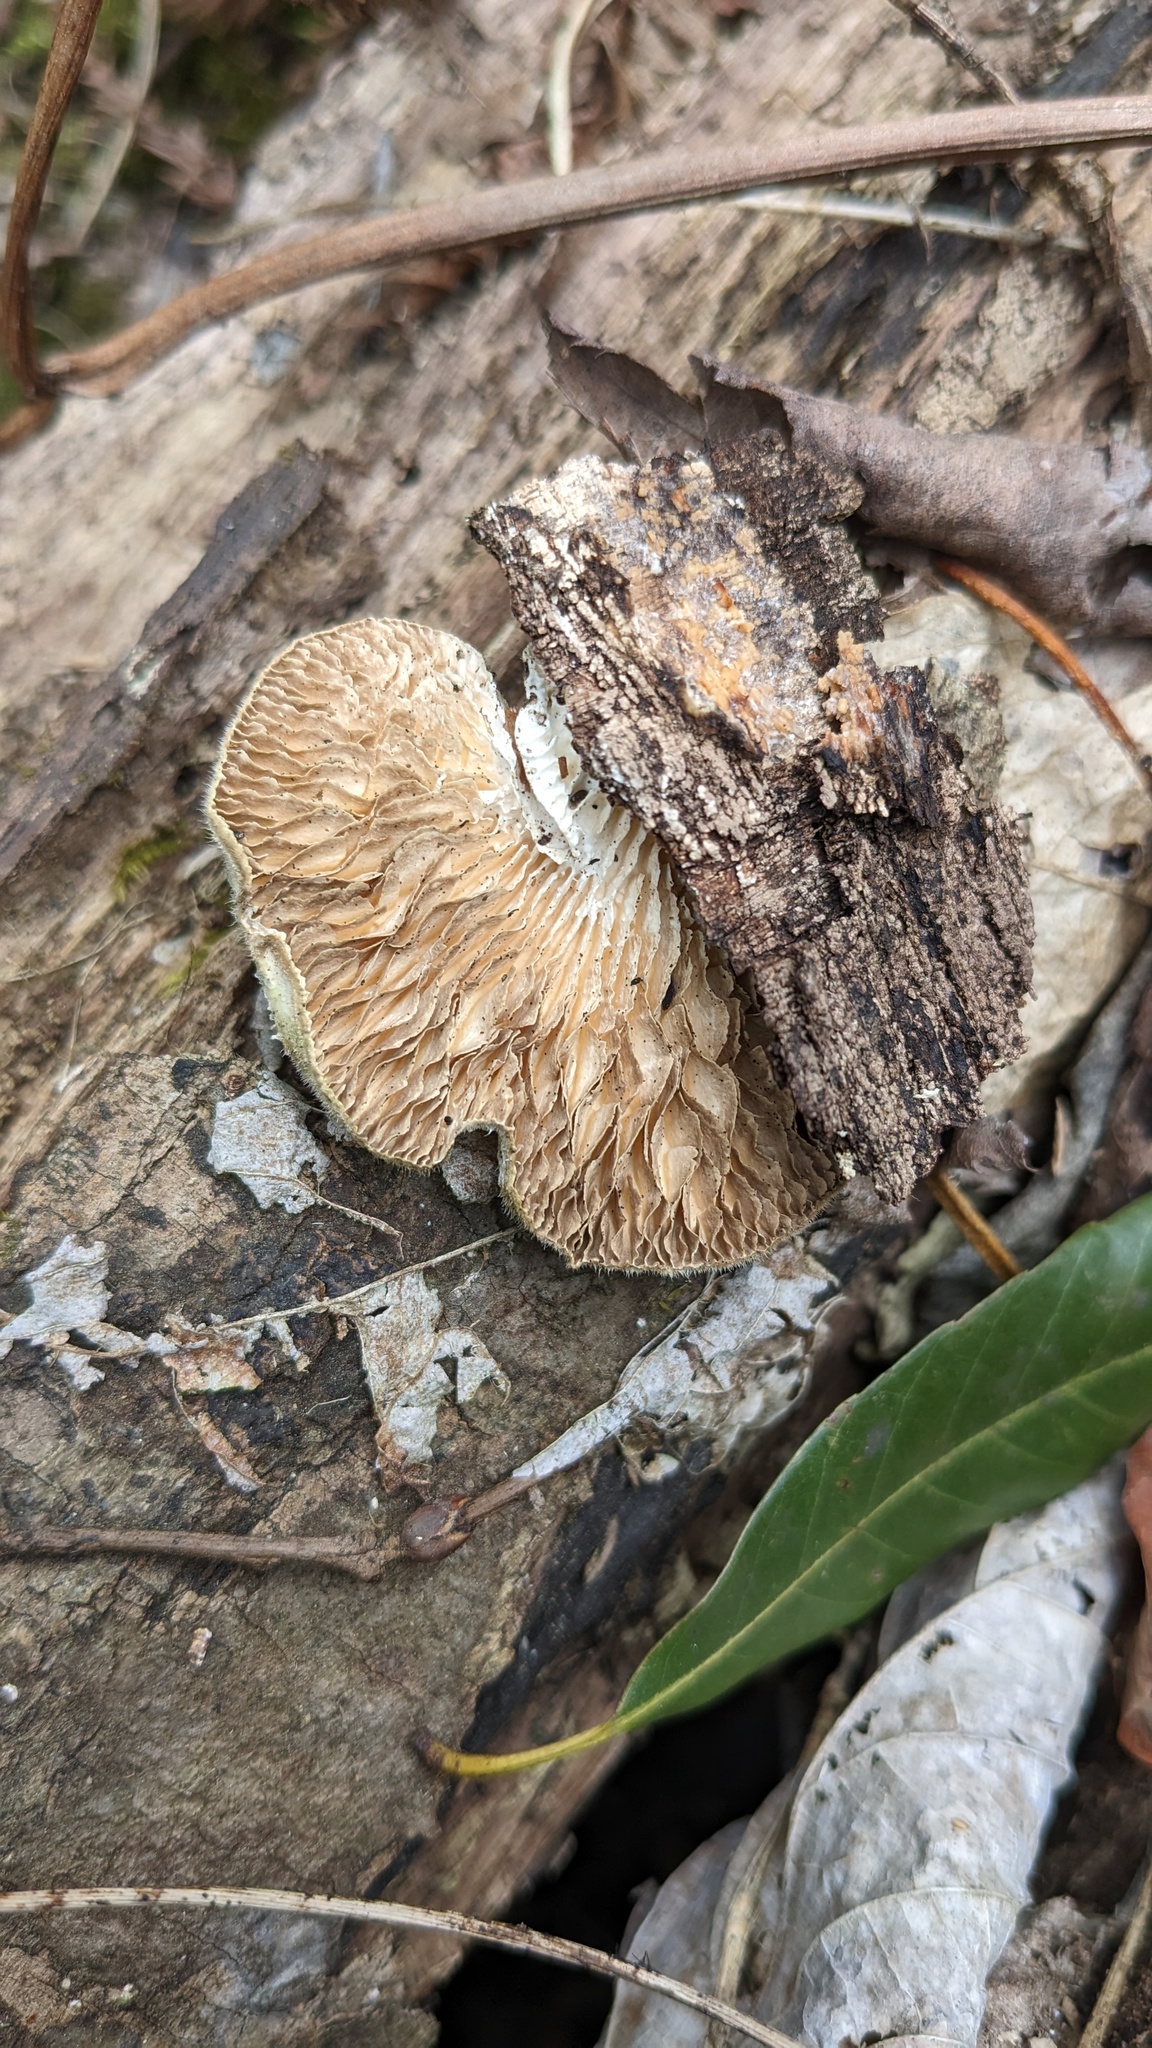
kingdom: Fungi
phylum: Basidiomycota
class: Agaricomycetes
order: Polyporales
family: Polyporaceae
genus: Lenzites
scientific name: Lenzites betulinus
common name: Birch mazegill
